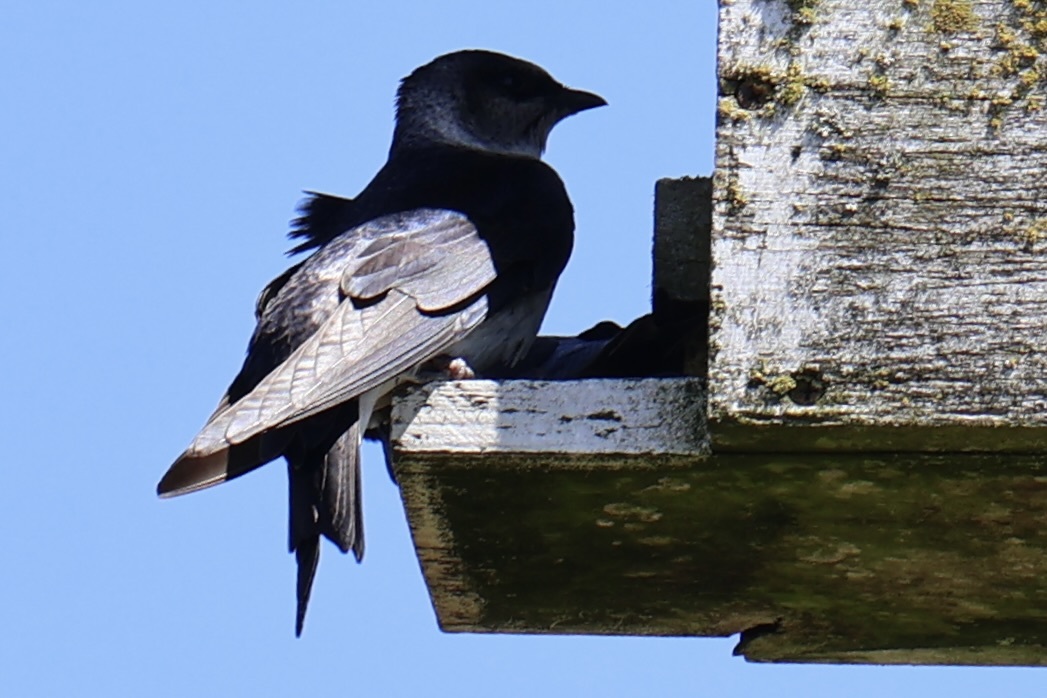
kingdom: Animalia
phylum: Chordata
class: Aves
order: Passeriformes
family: Hirundinidae
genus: Progne
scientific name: Progne subis
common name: Purple martin
